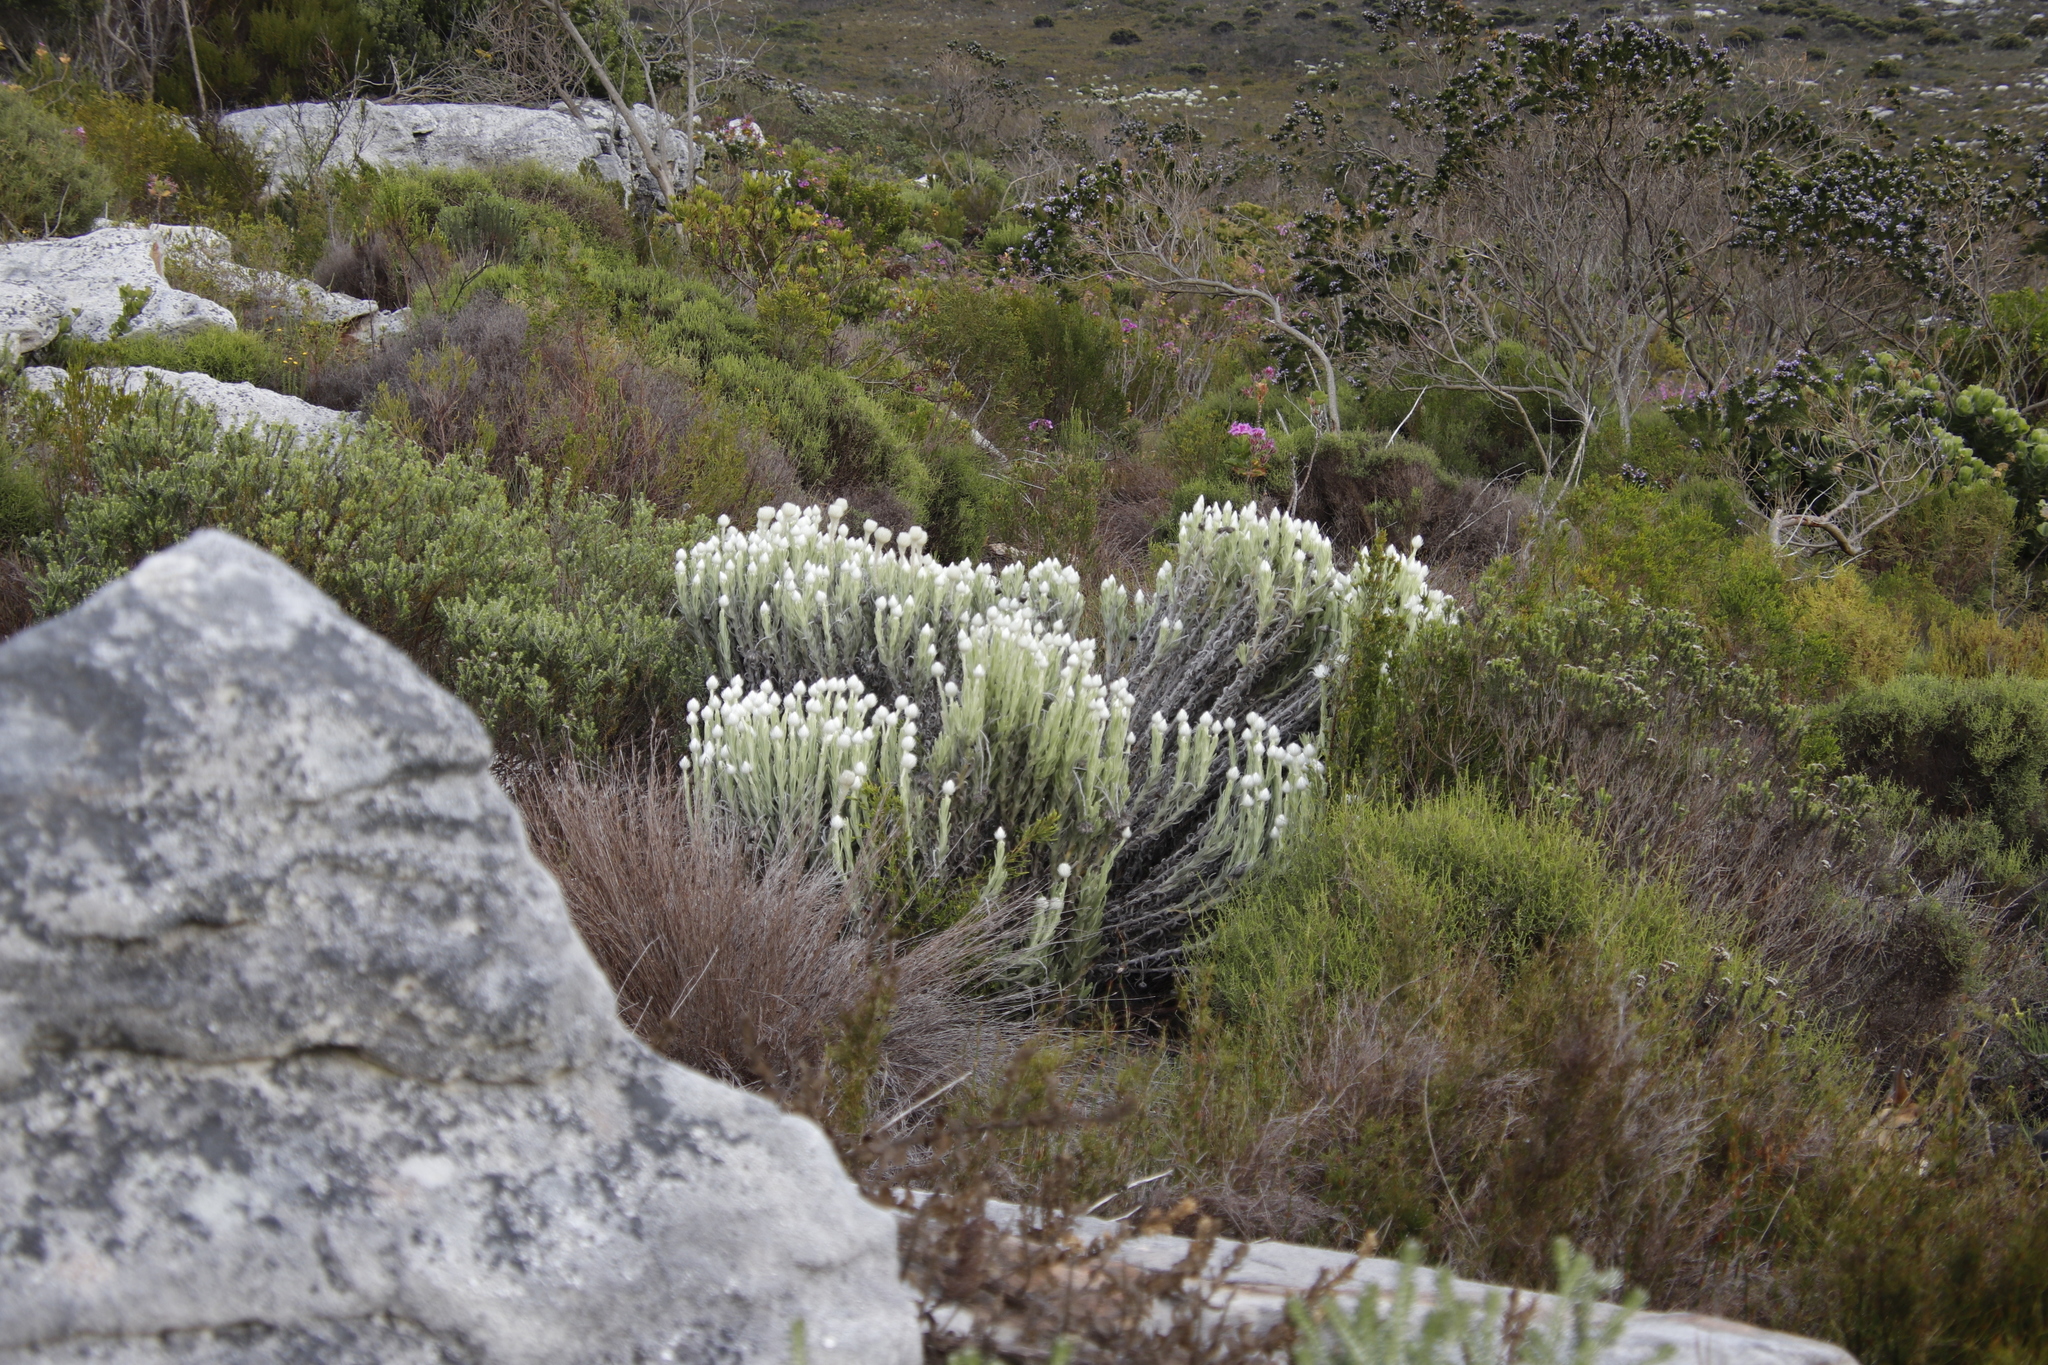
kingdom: Plantae
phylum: Tracheophyta
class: Magnoliopsida
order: Asterales
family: Asteraceae
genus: Syncarpha
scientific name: Syncarpha vestita
